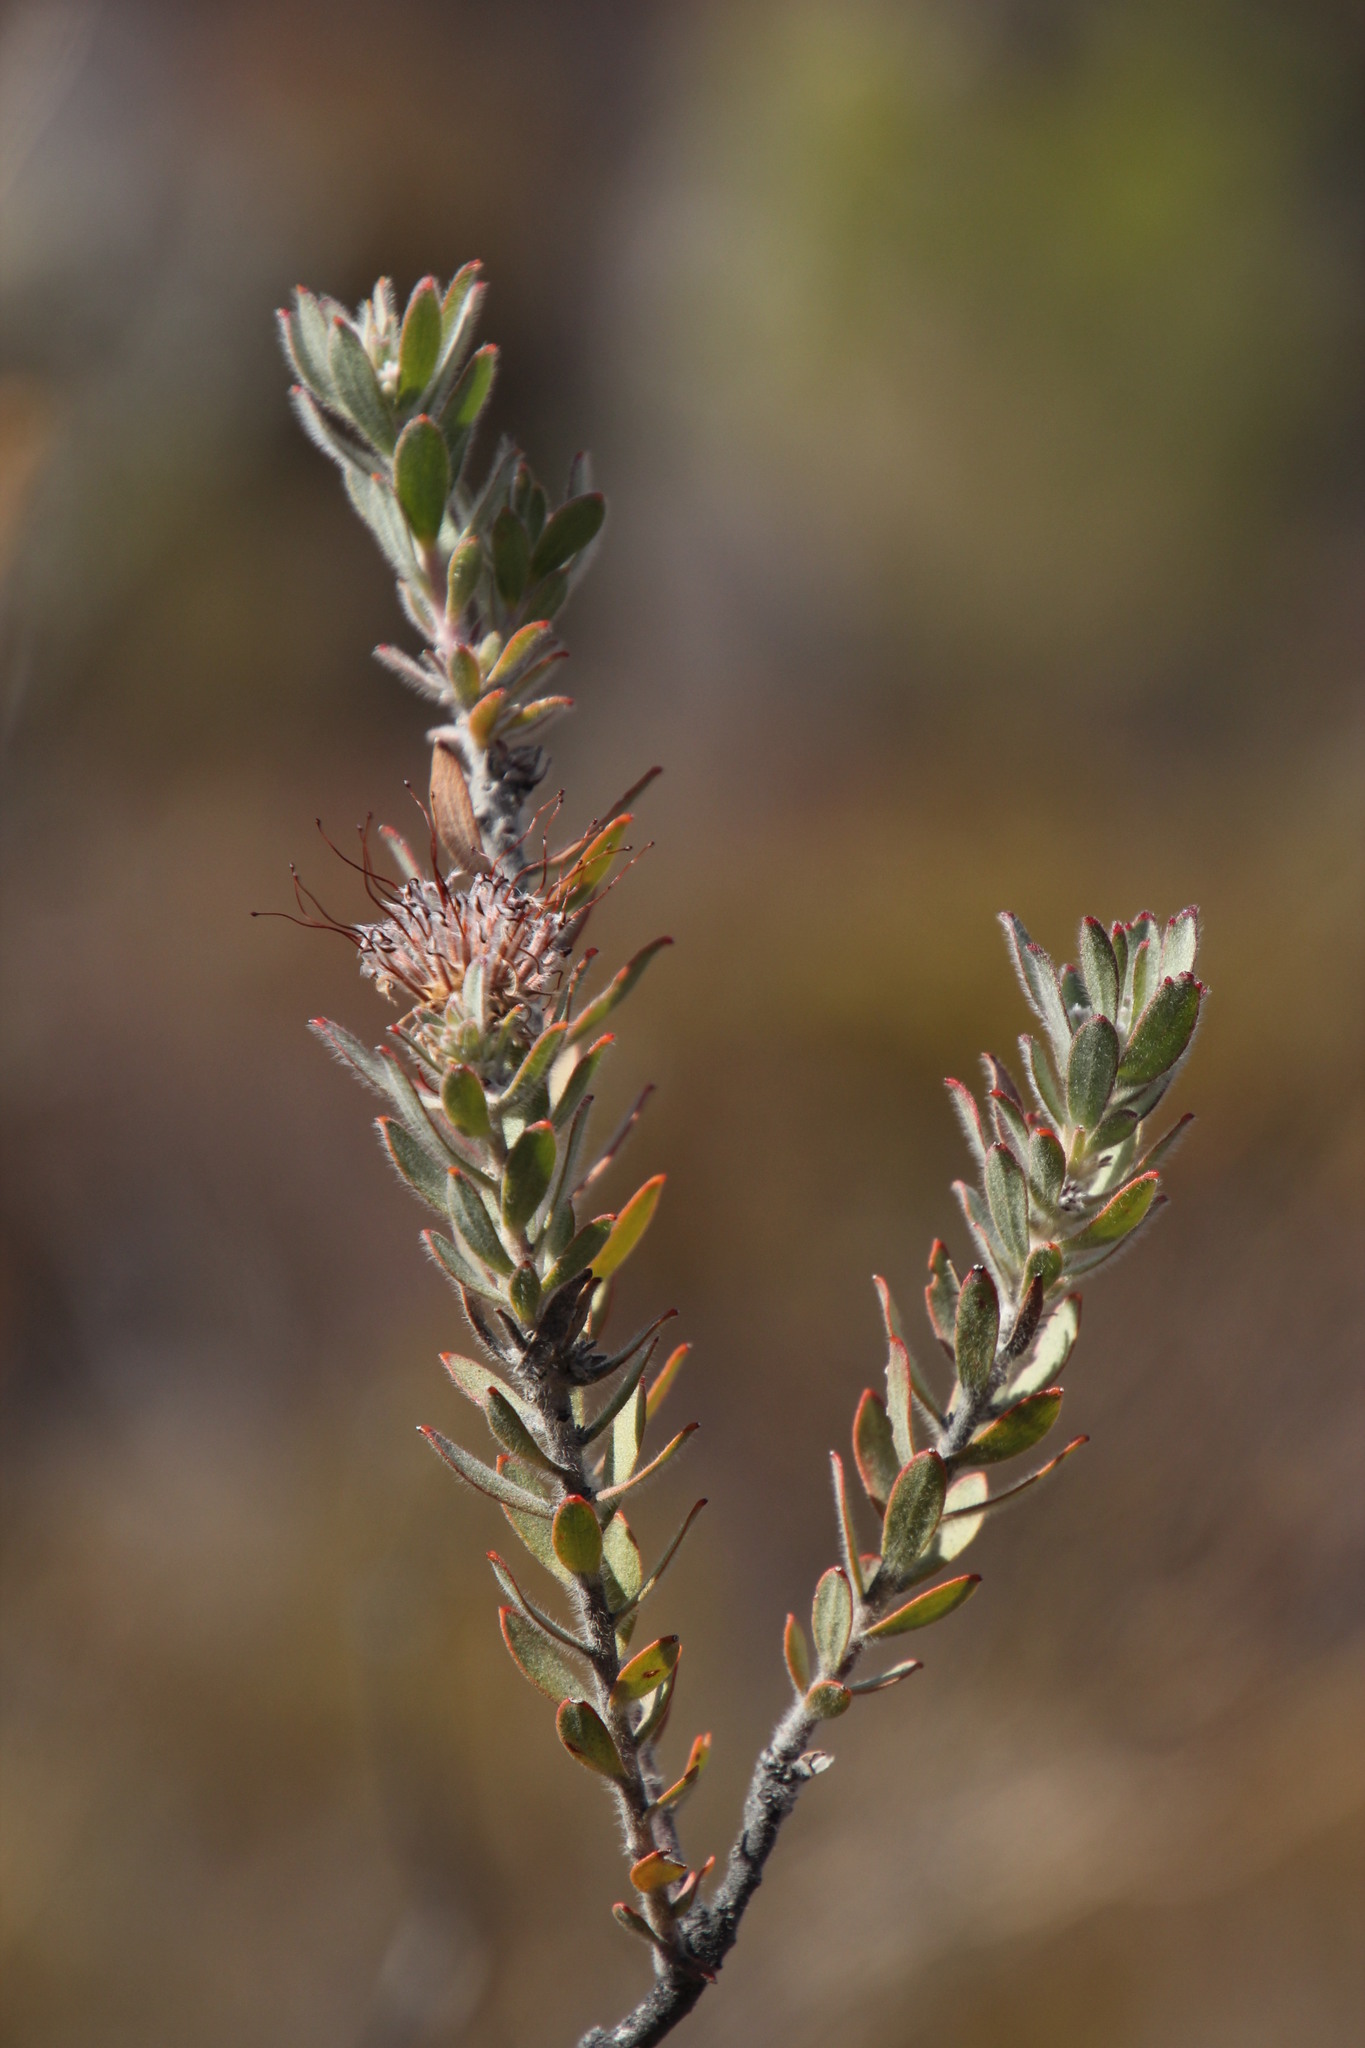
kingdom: Plantae
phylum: Tracheophyta
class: Magnoliopsida
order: Proteales
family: Proteaceae
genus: Leucospermum
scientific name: Leucospermum calligerum
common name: Arid pincushion
